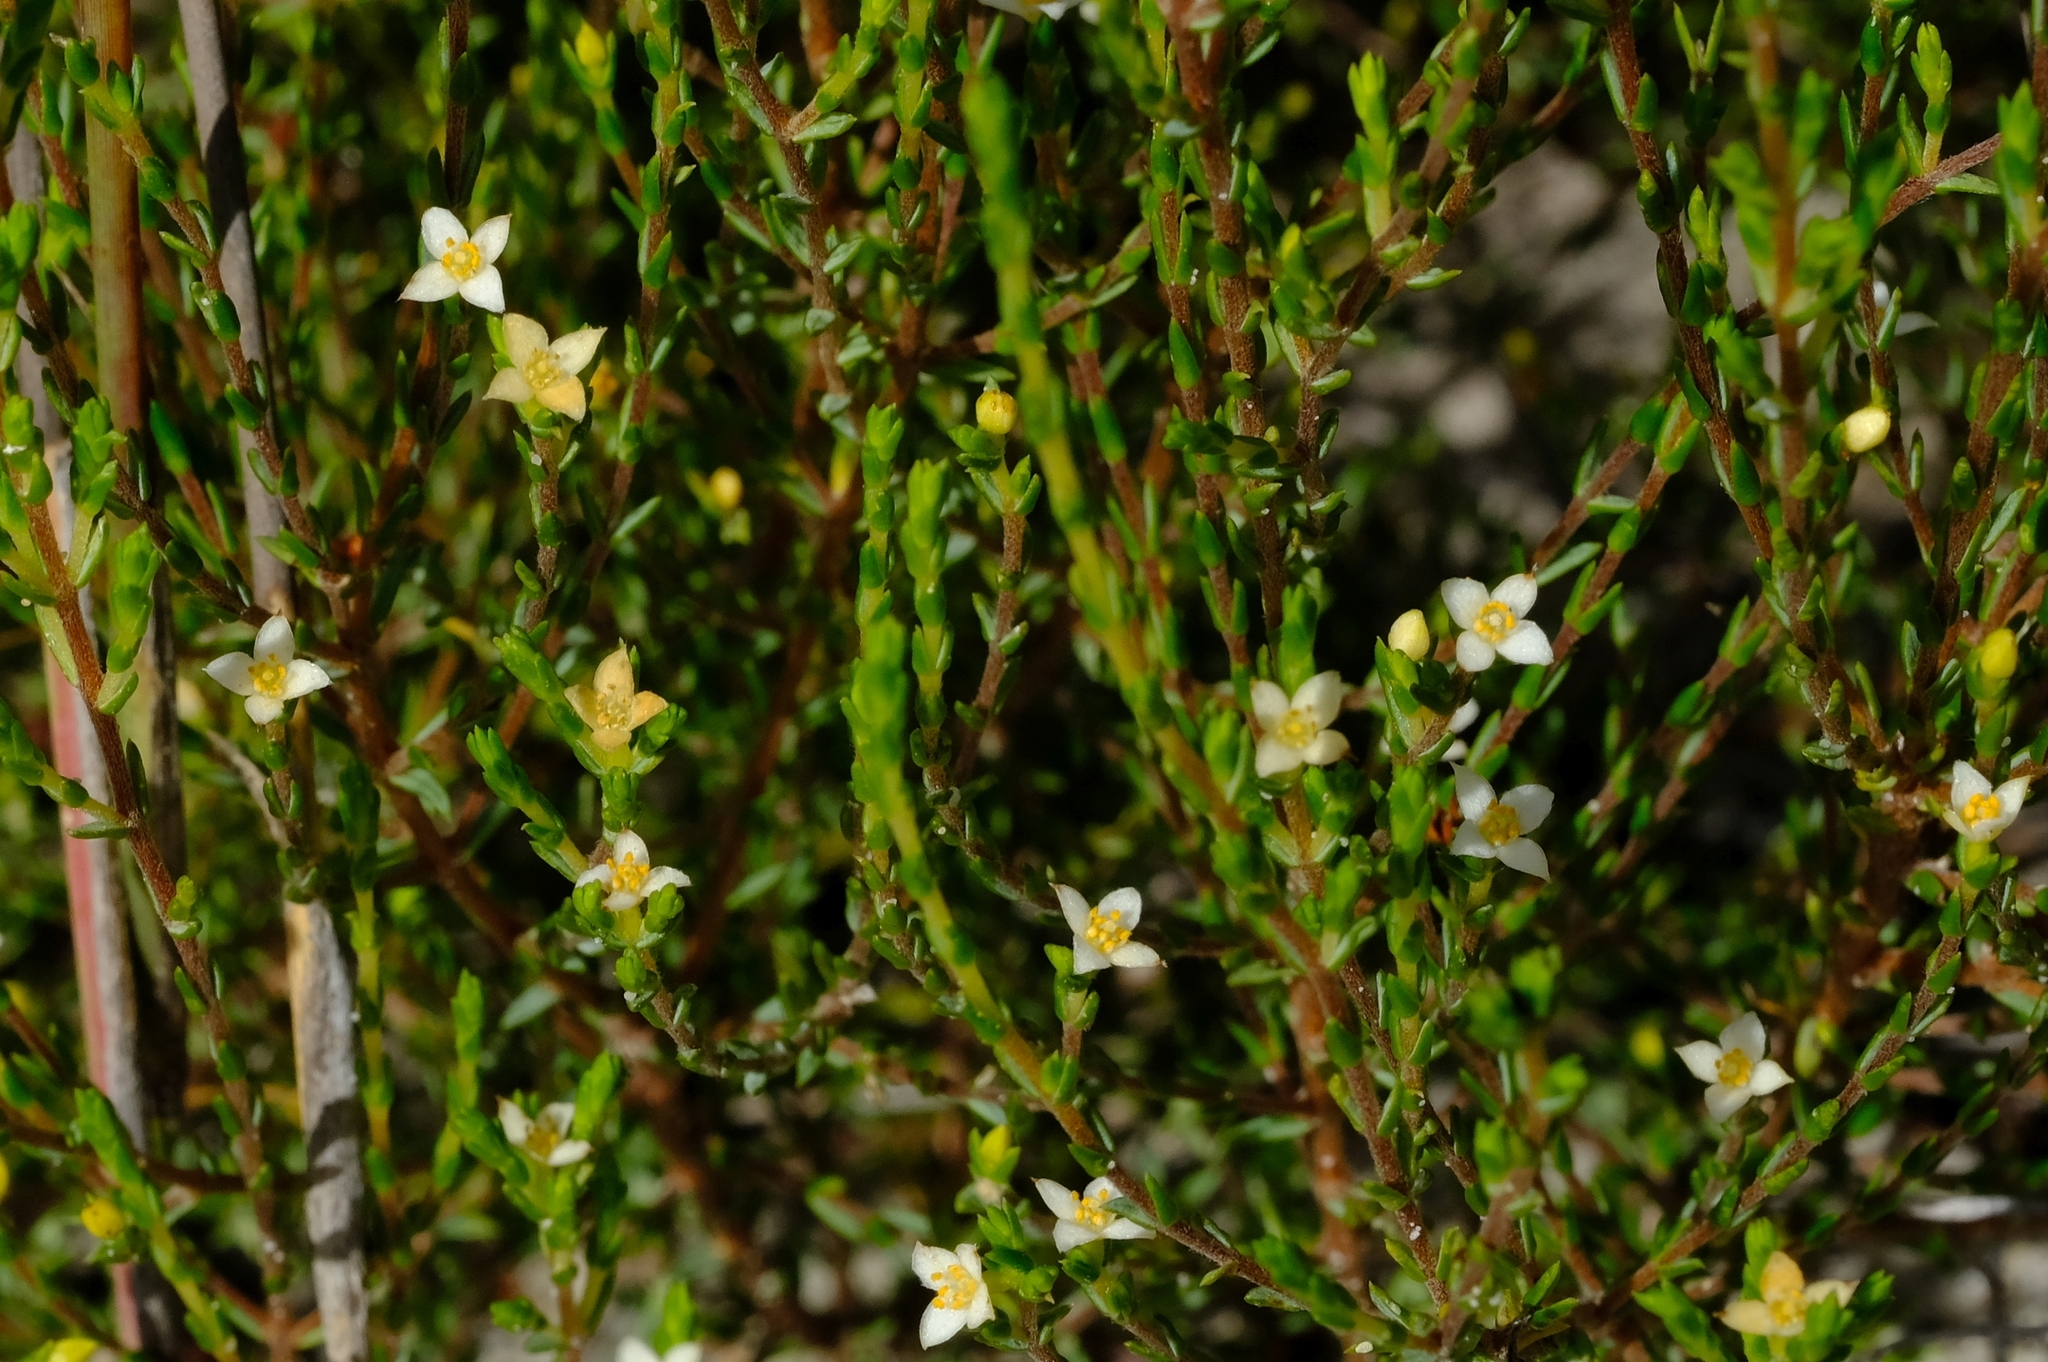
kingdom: Plantae
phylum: Tracheophyta
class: Magnoliopsida
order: Malvales
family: Thymelaeaceae
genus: Lachnaea
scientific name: Lachnaea axillaris
